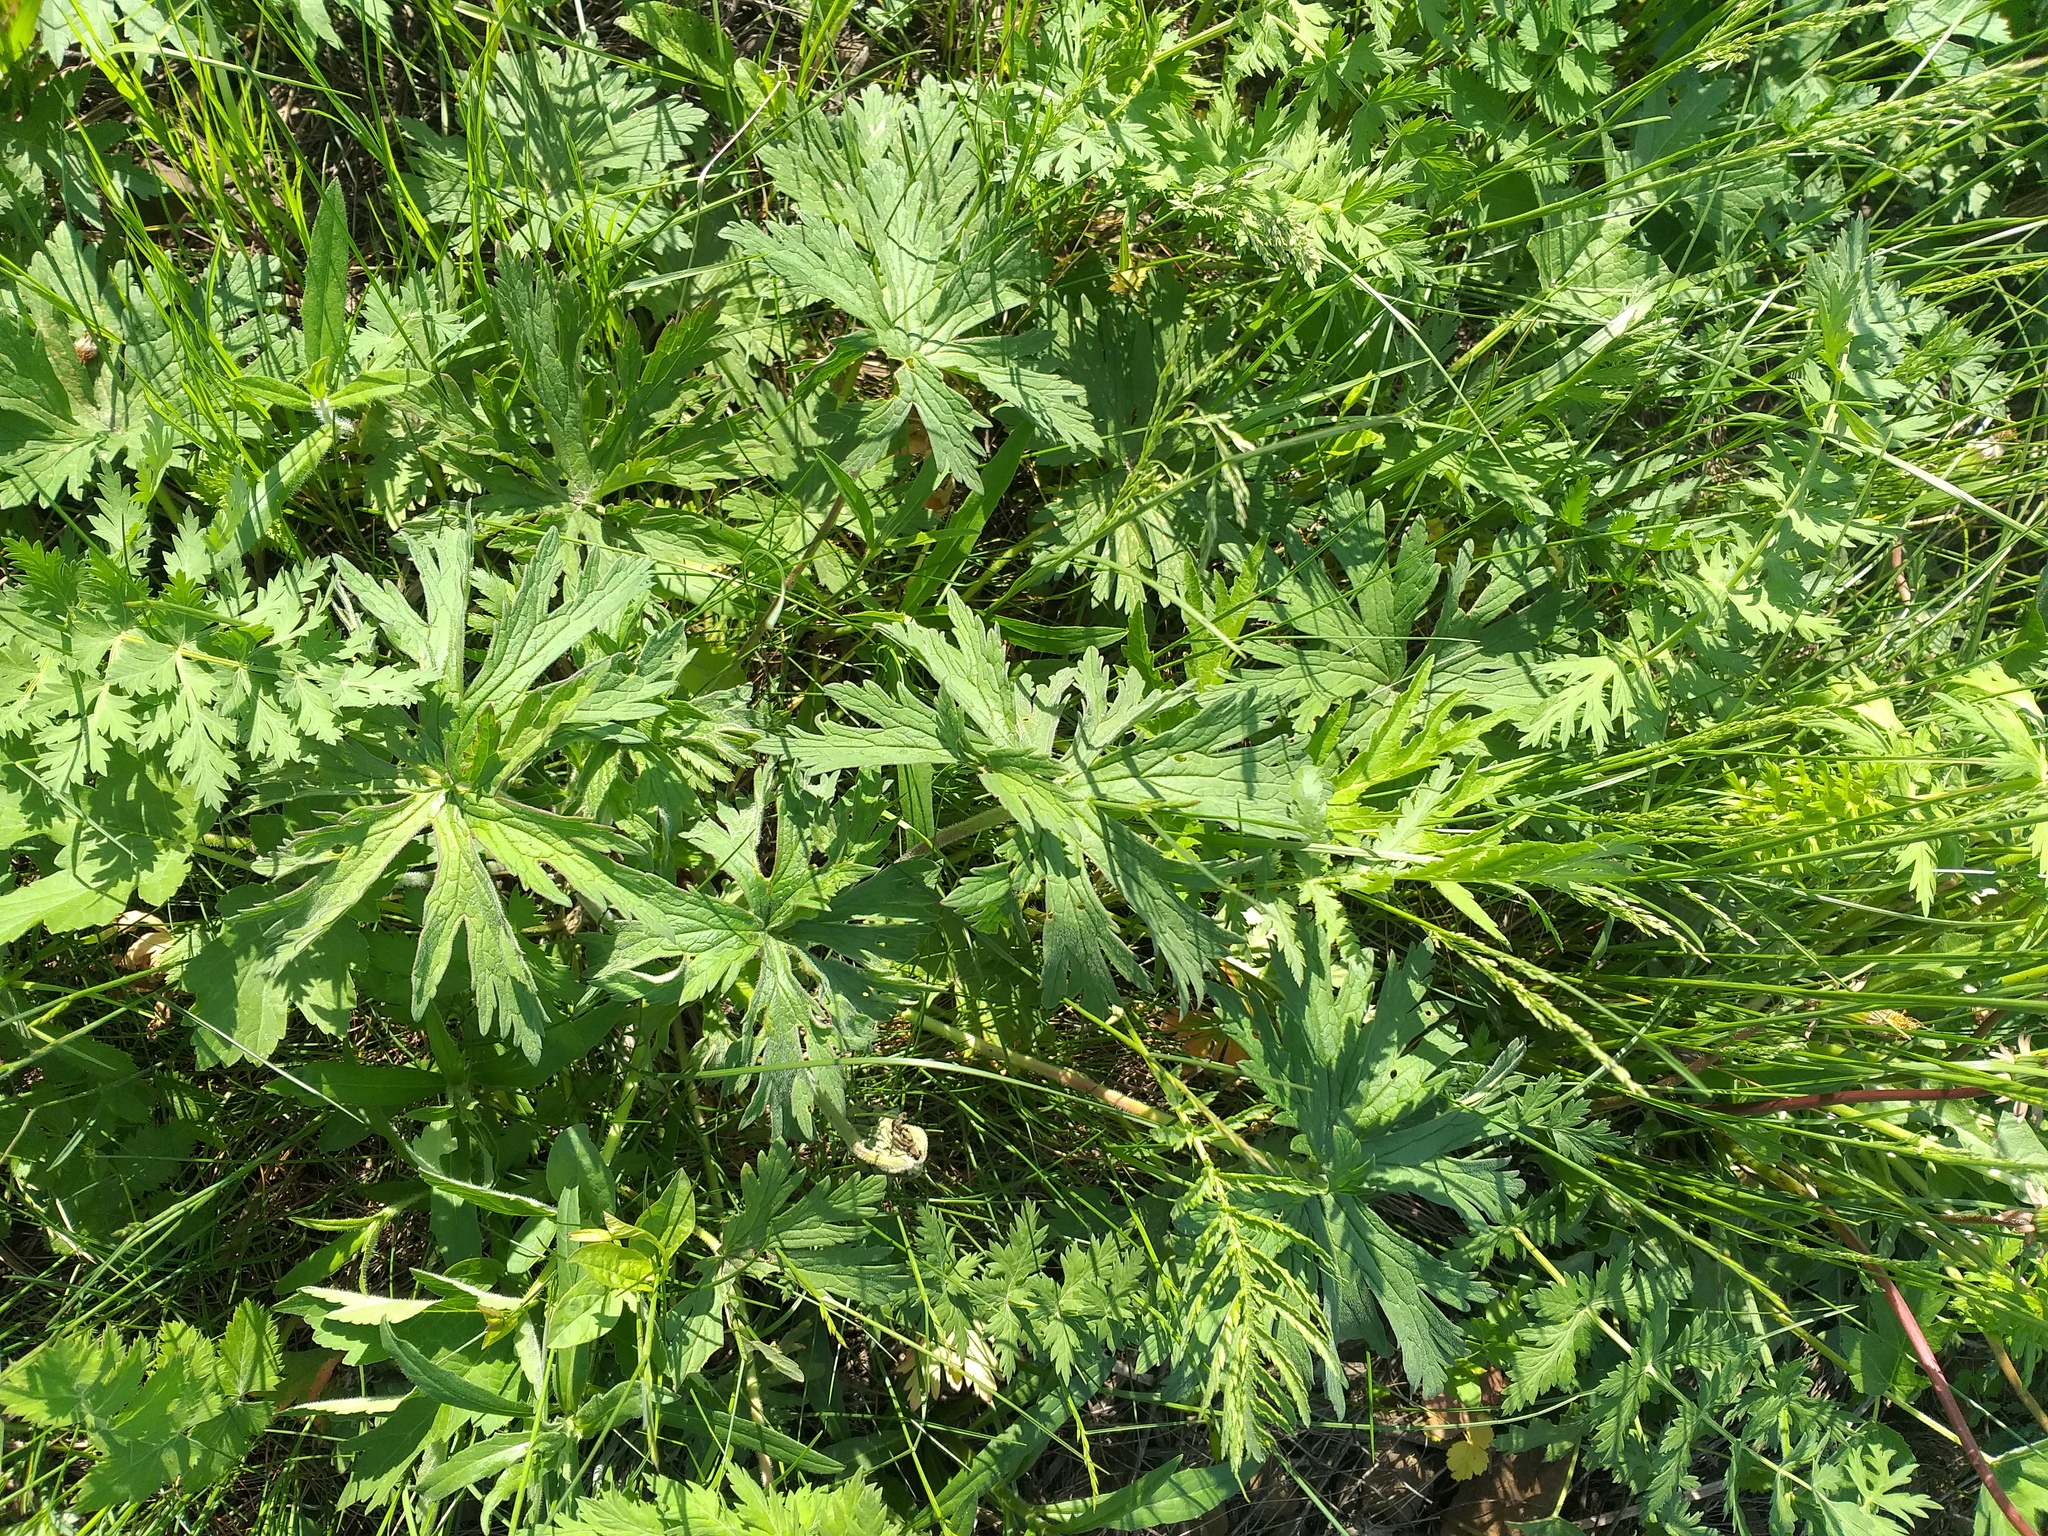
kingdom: Plantae
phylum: Tracheophyta
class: Magnoliopsida
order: Geraniales
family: Geraniaceae
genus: Geranium
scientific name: Geranium pratense
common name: Meadow crane's-bill
